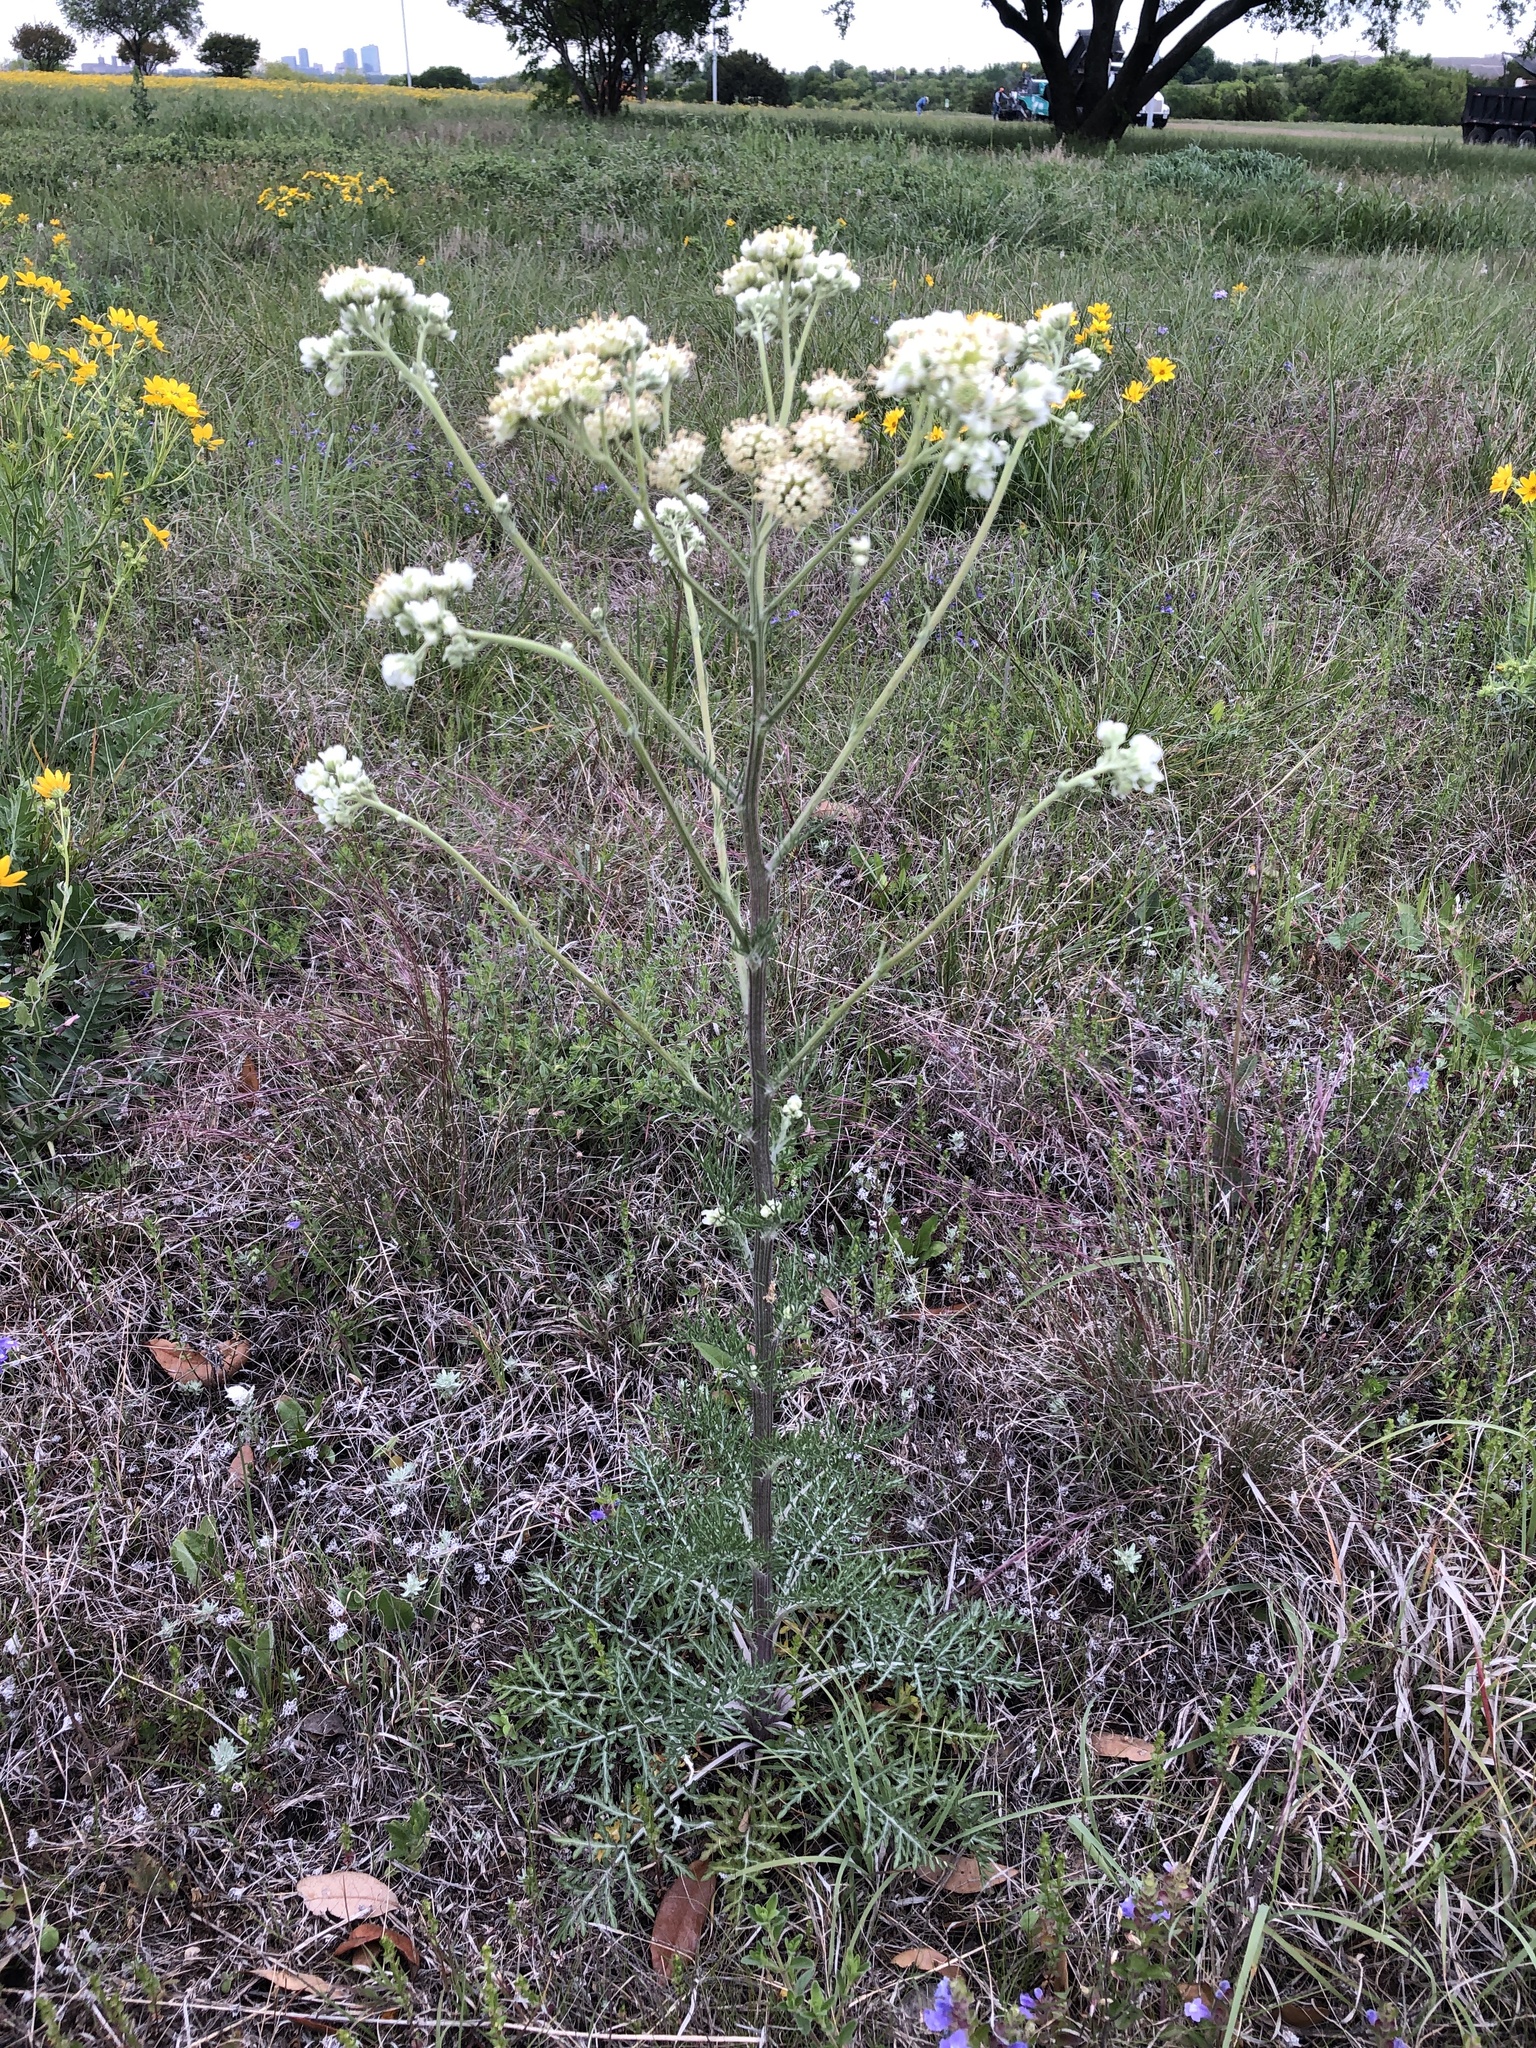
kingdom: Plantae
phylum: Tracheophyta
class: Magnoliopsida
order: Asterales
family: Asteraceae
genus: Hymenopappus
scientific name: Hymenopappus scabiosaeus
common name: Carolina woollywhite
